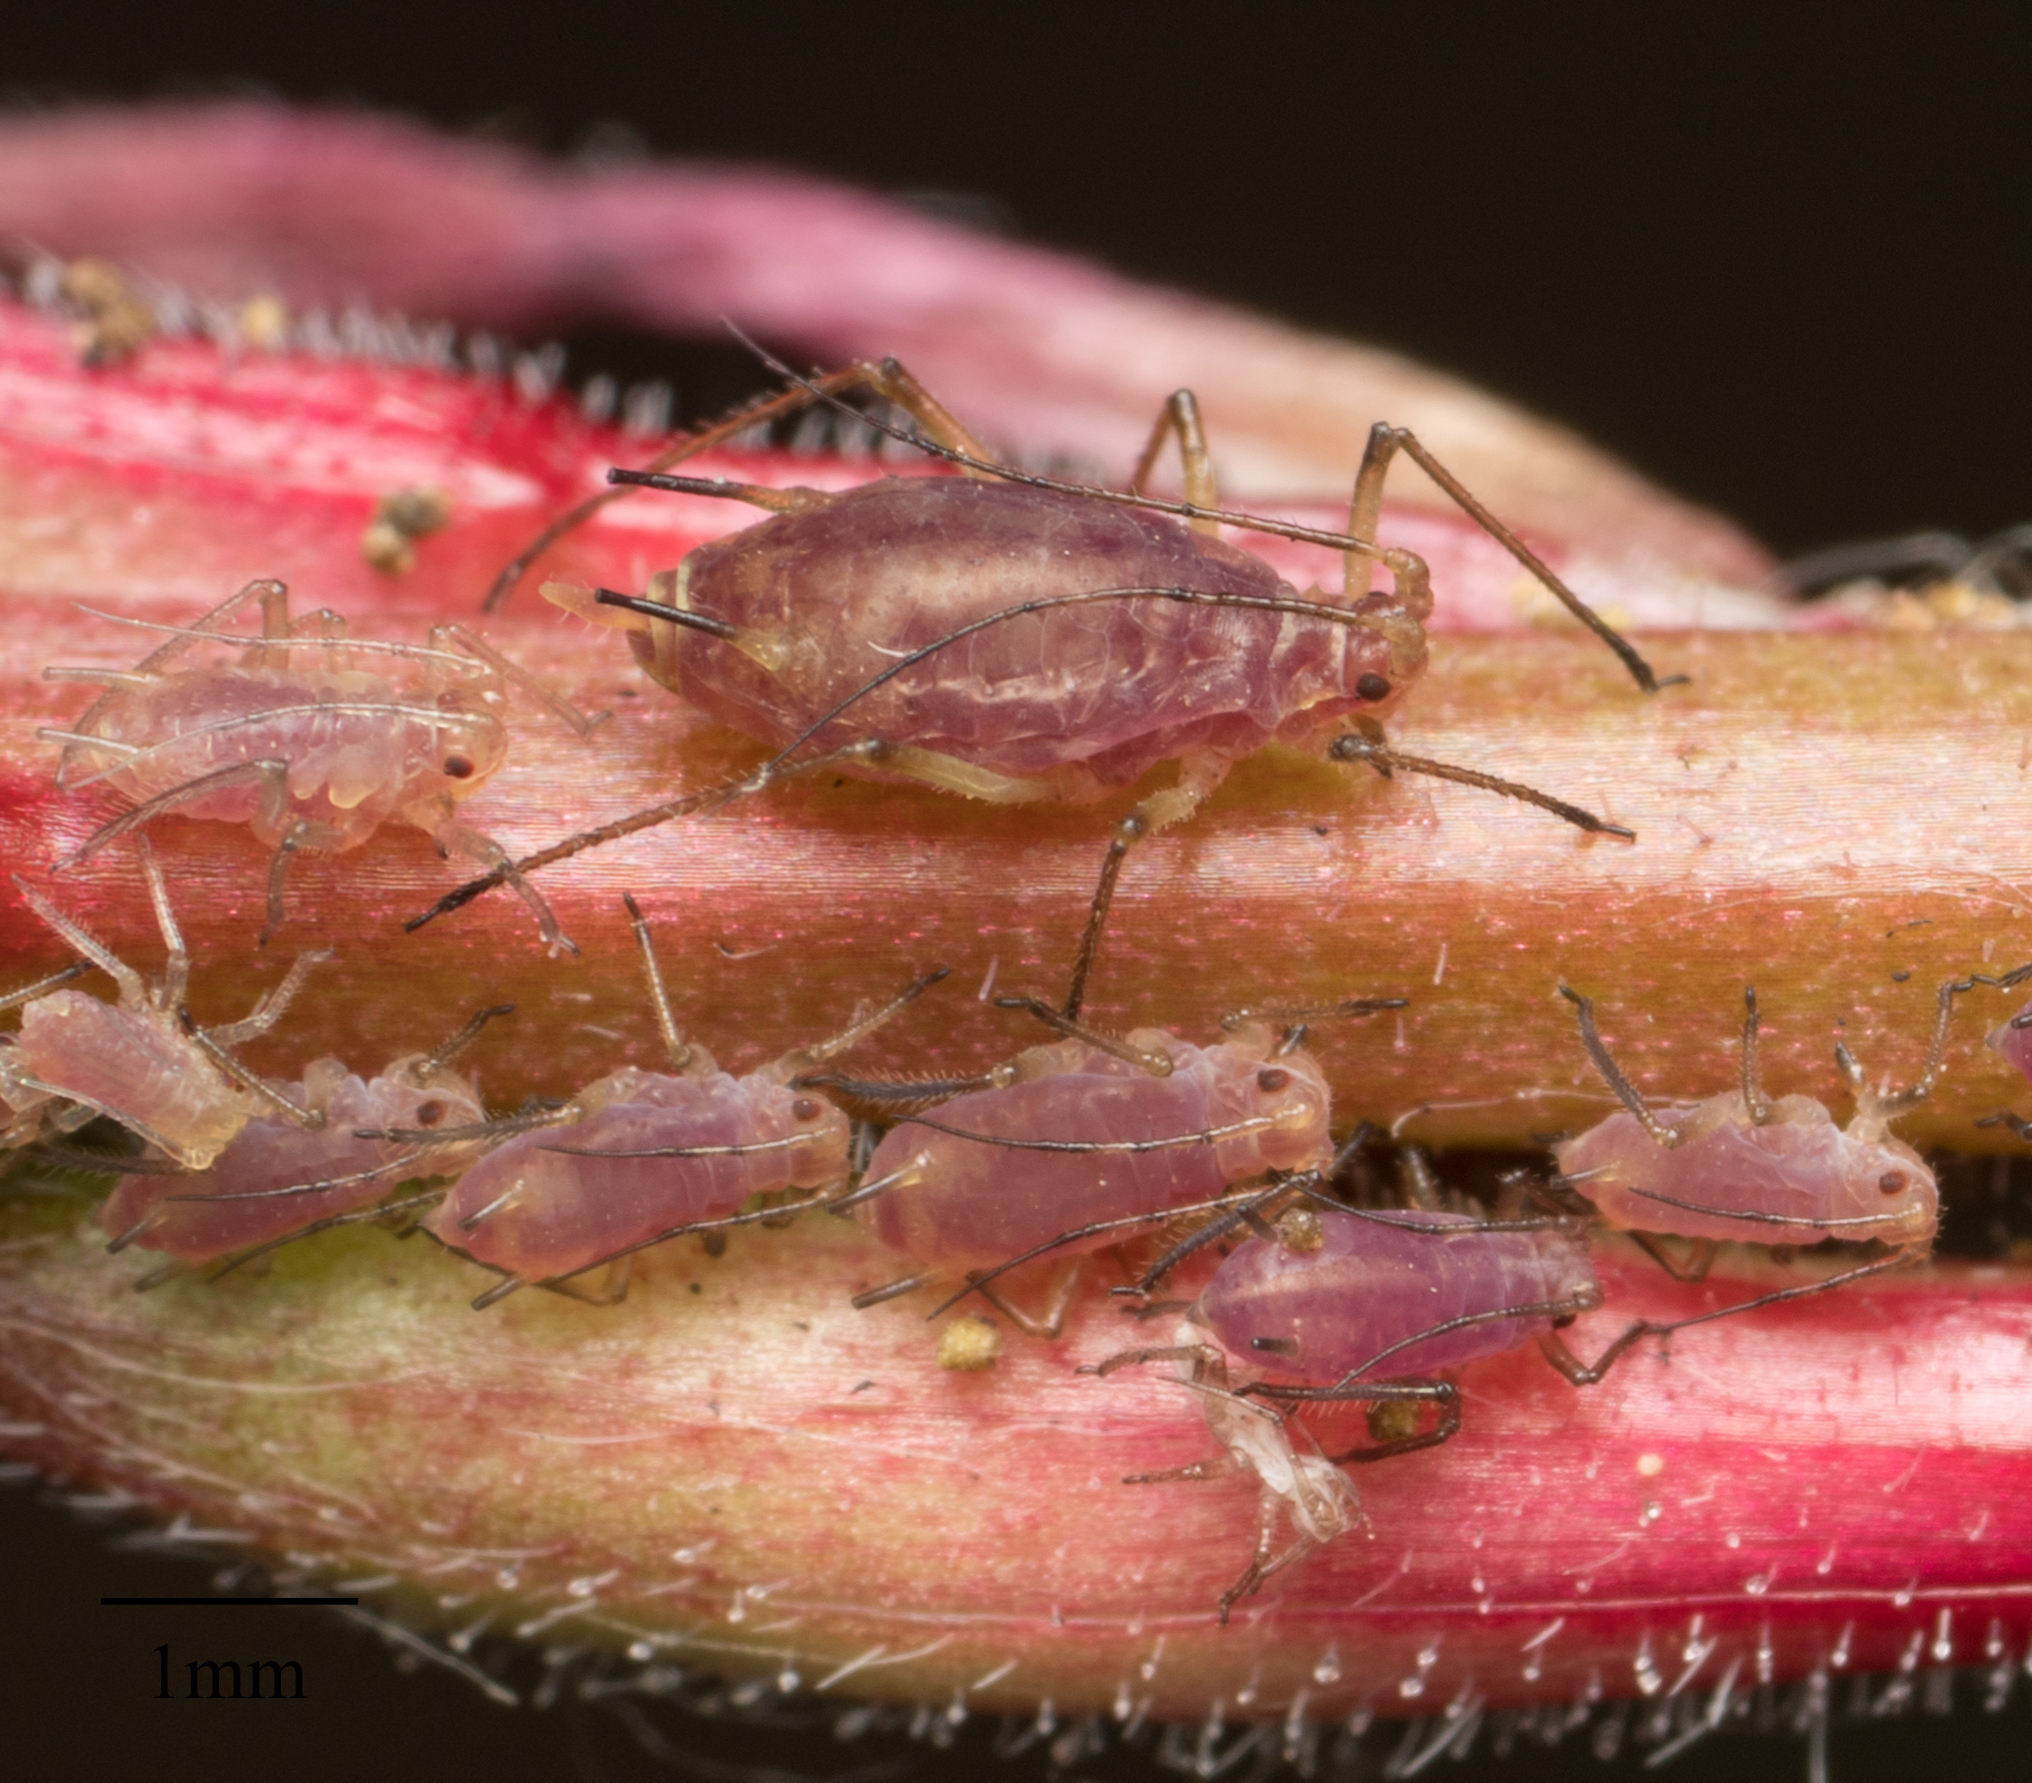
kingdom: Animalia
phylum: Arthropoda
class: Insecta
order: Hemiptera
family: Aphididae
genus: Macrosiphum
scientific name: Macrosiphum gaurae
